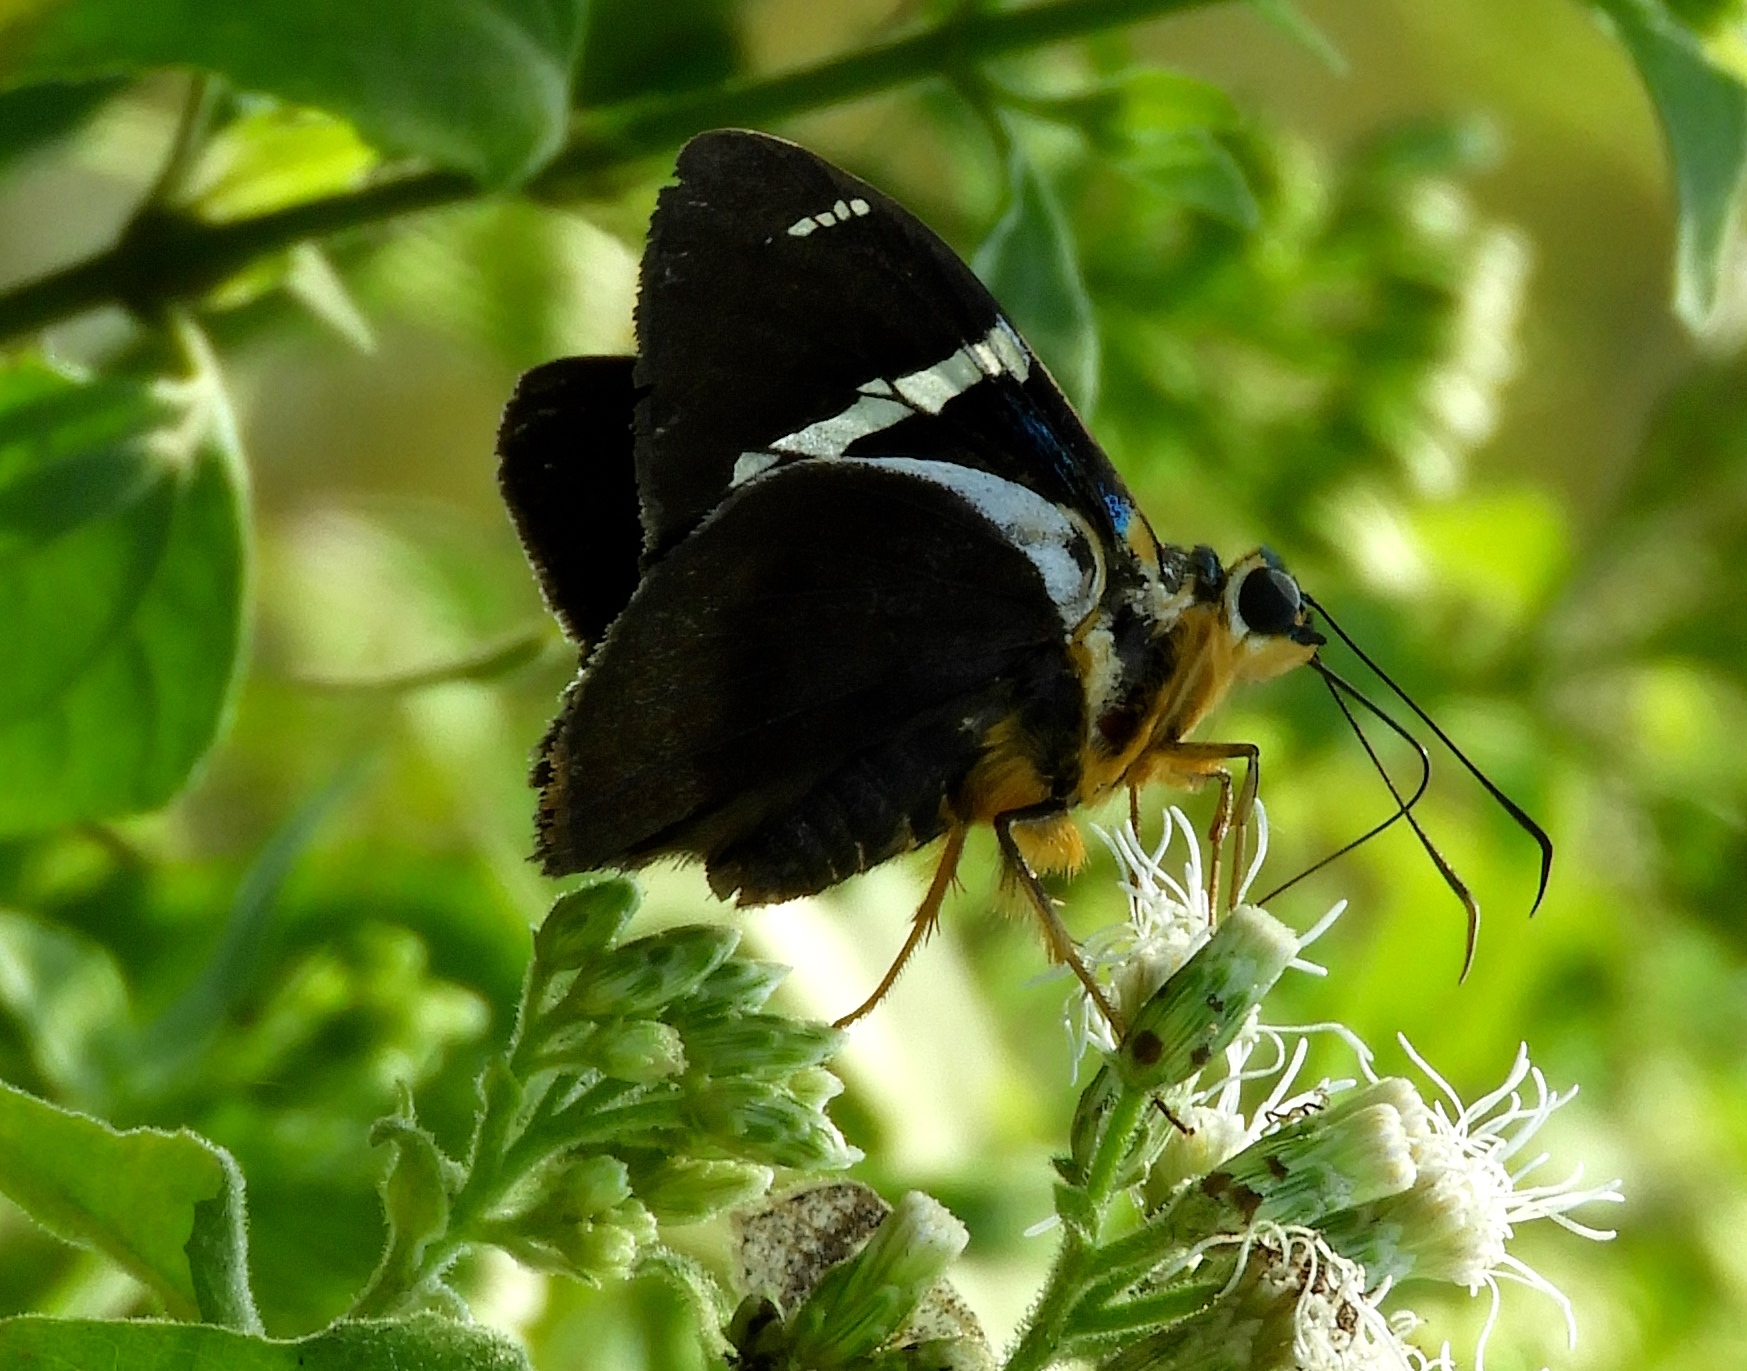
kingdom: Animalia
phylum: Arthropoda
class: Insecta
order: Lepidoptera
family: Hesperiidae
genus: Astraptes
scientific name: Astraptes fulgerator
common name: Two-barred flasher
